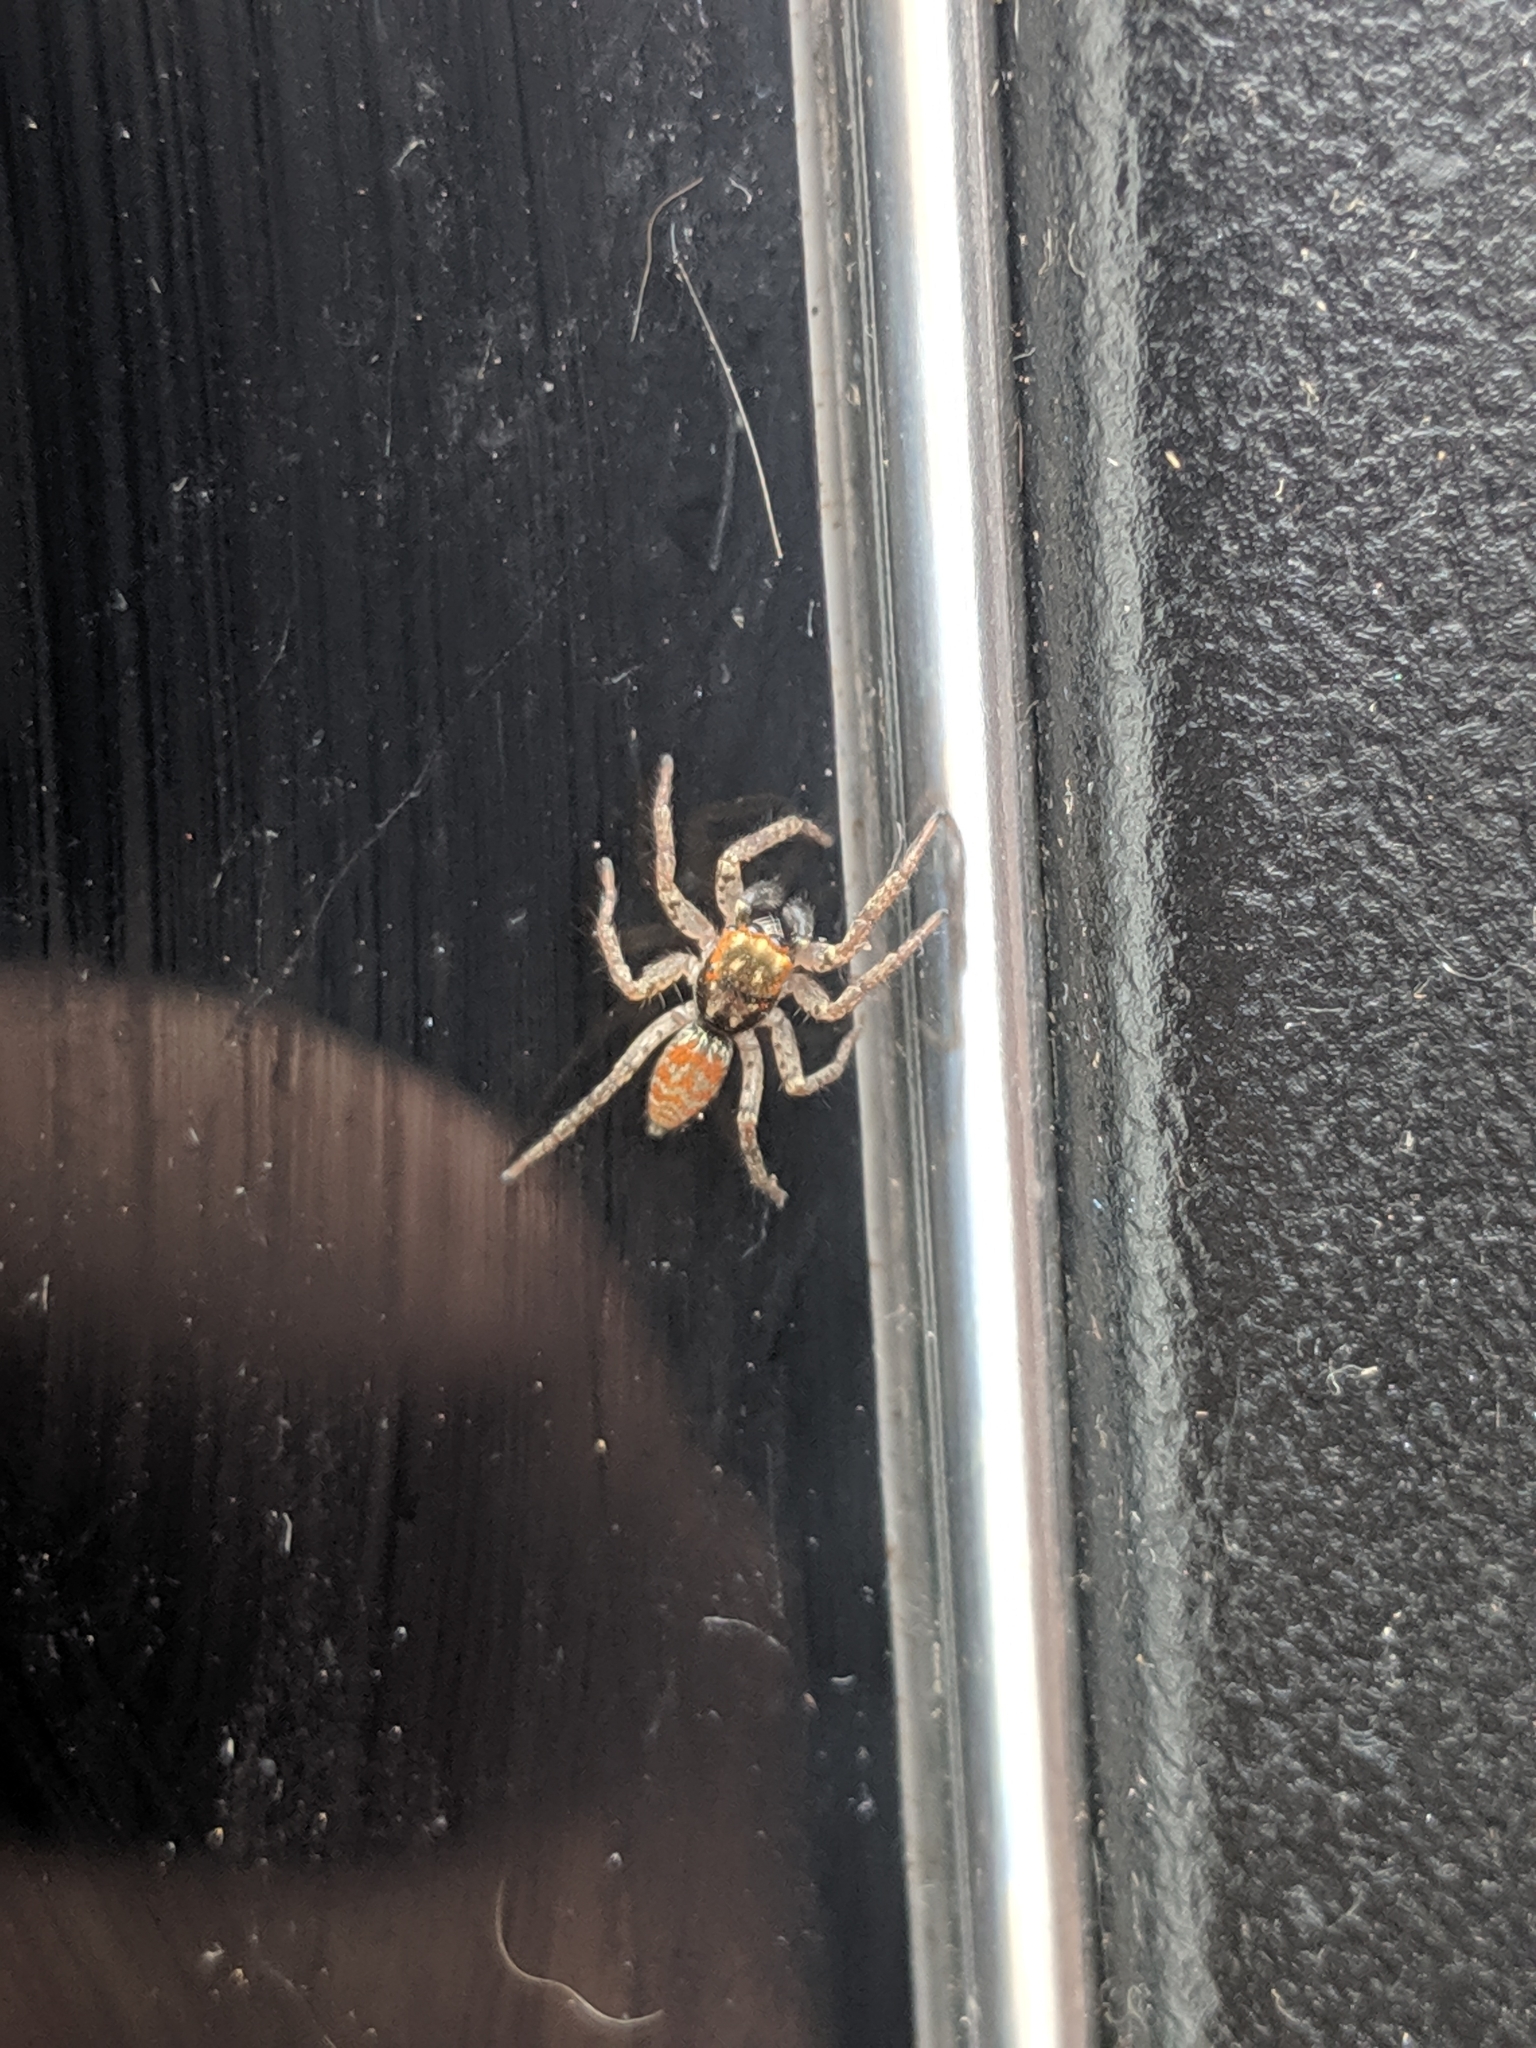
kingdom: Animalia
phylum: Arthropoda
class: Arachnida
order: Araneae
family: Salticidae
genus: Maevia
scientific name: Maevia inclemens
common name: Dimorphic jumper
